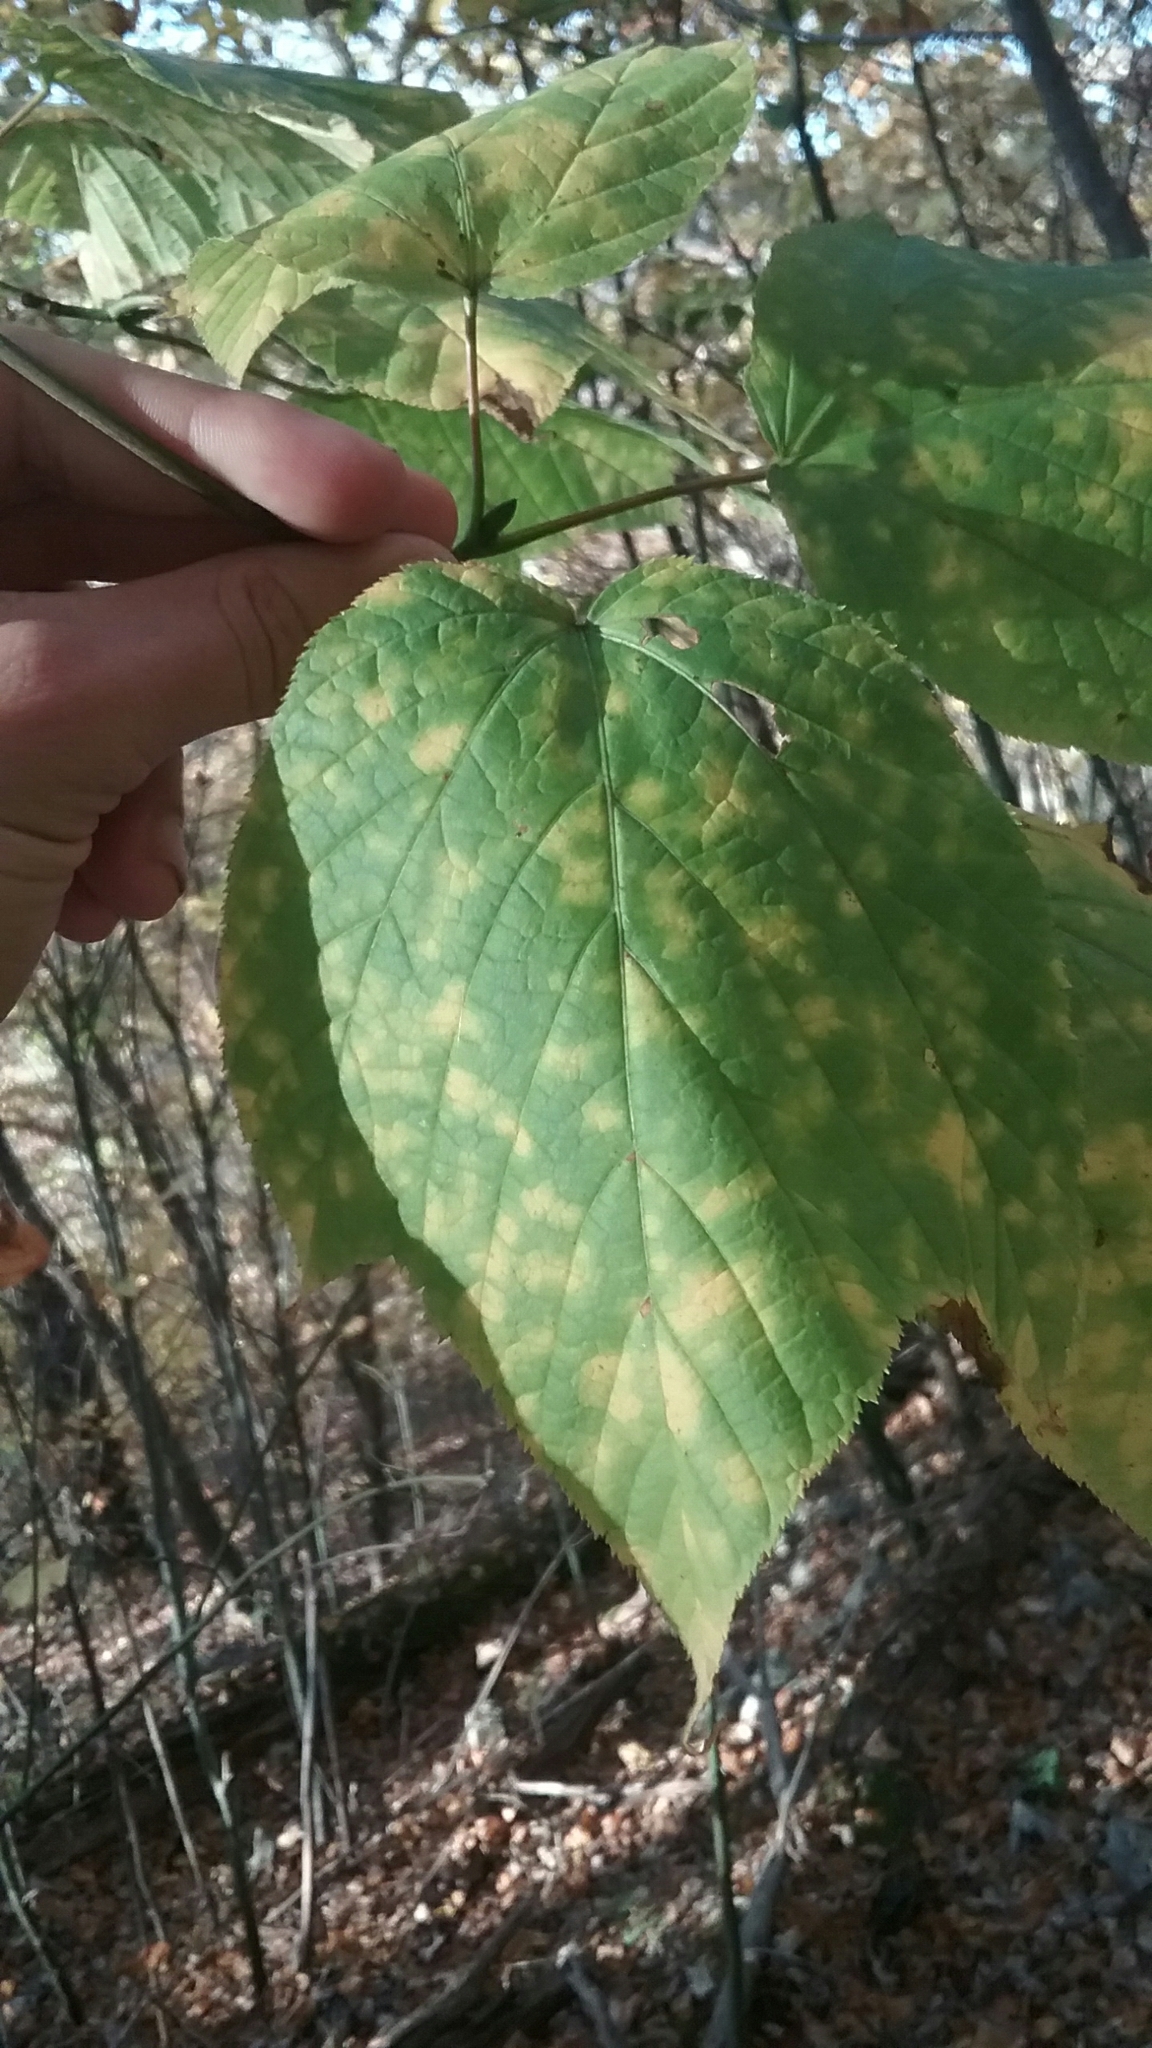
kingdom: Plantae
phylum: Tracheophyta
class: Magnoliopsida
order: Sapindales
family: Sapindaceae
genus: Acer
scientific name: Acer pensylvanicum
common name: Moosewood
